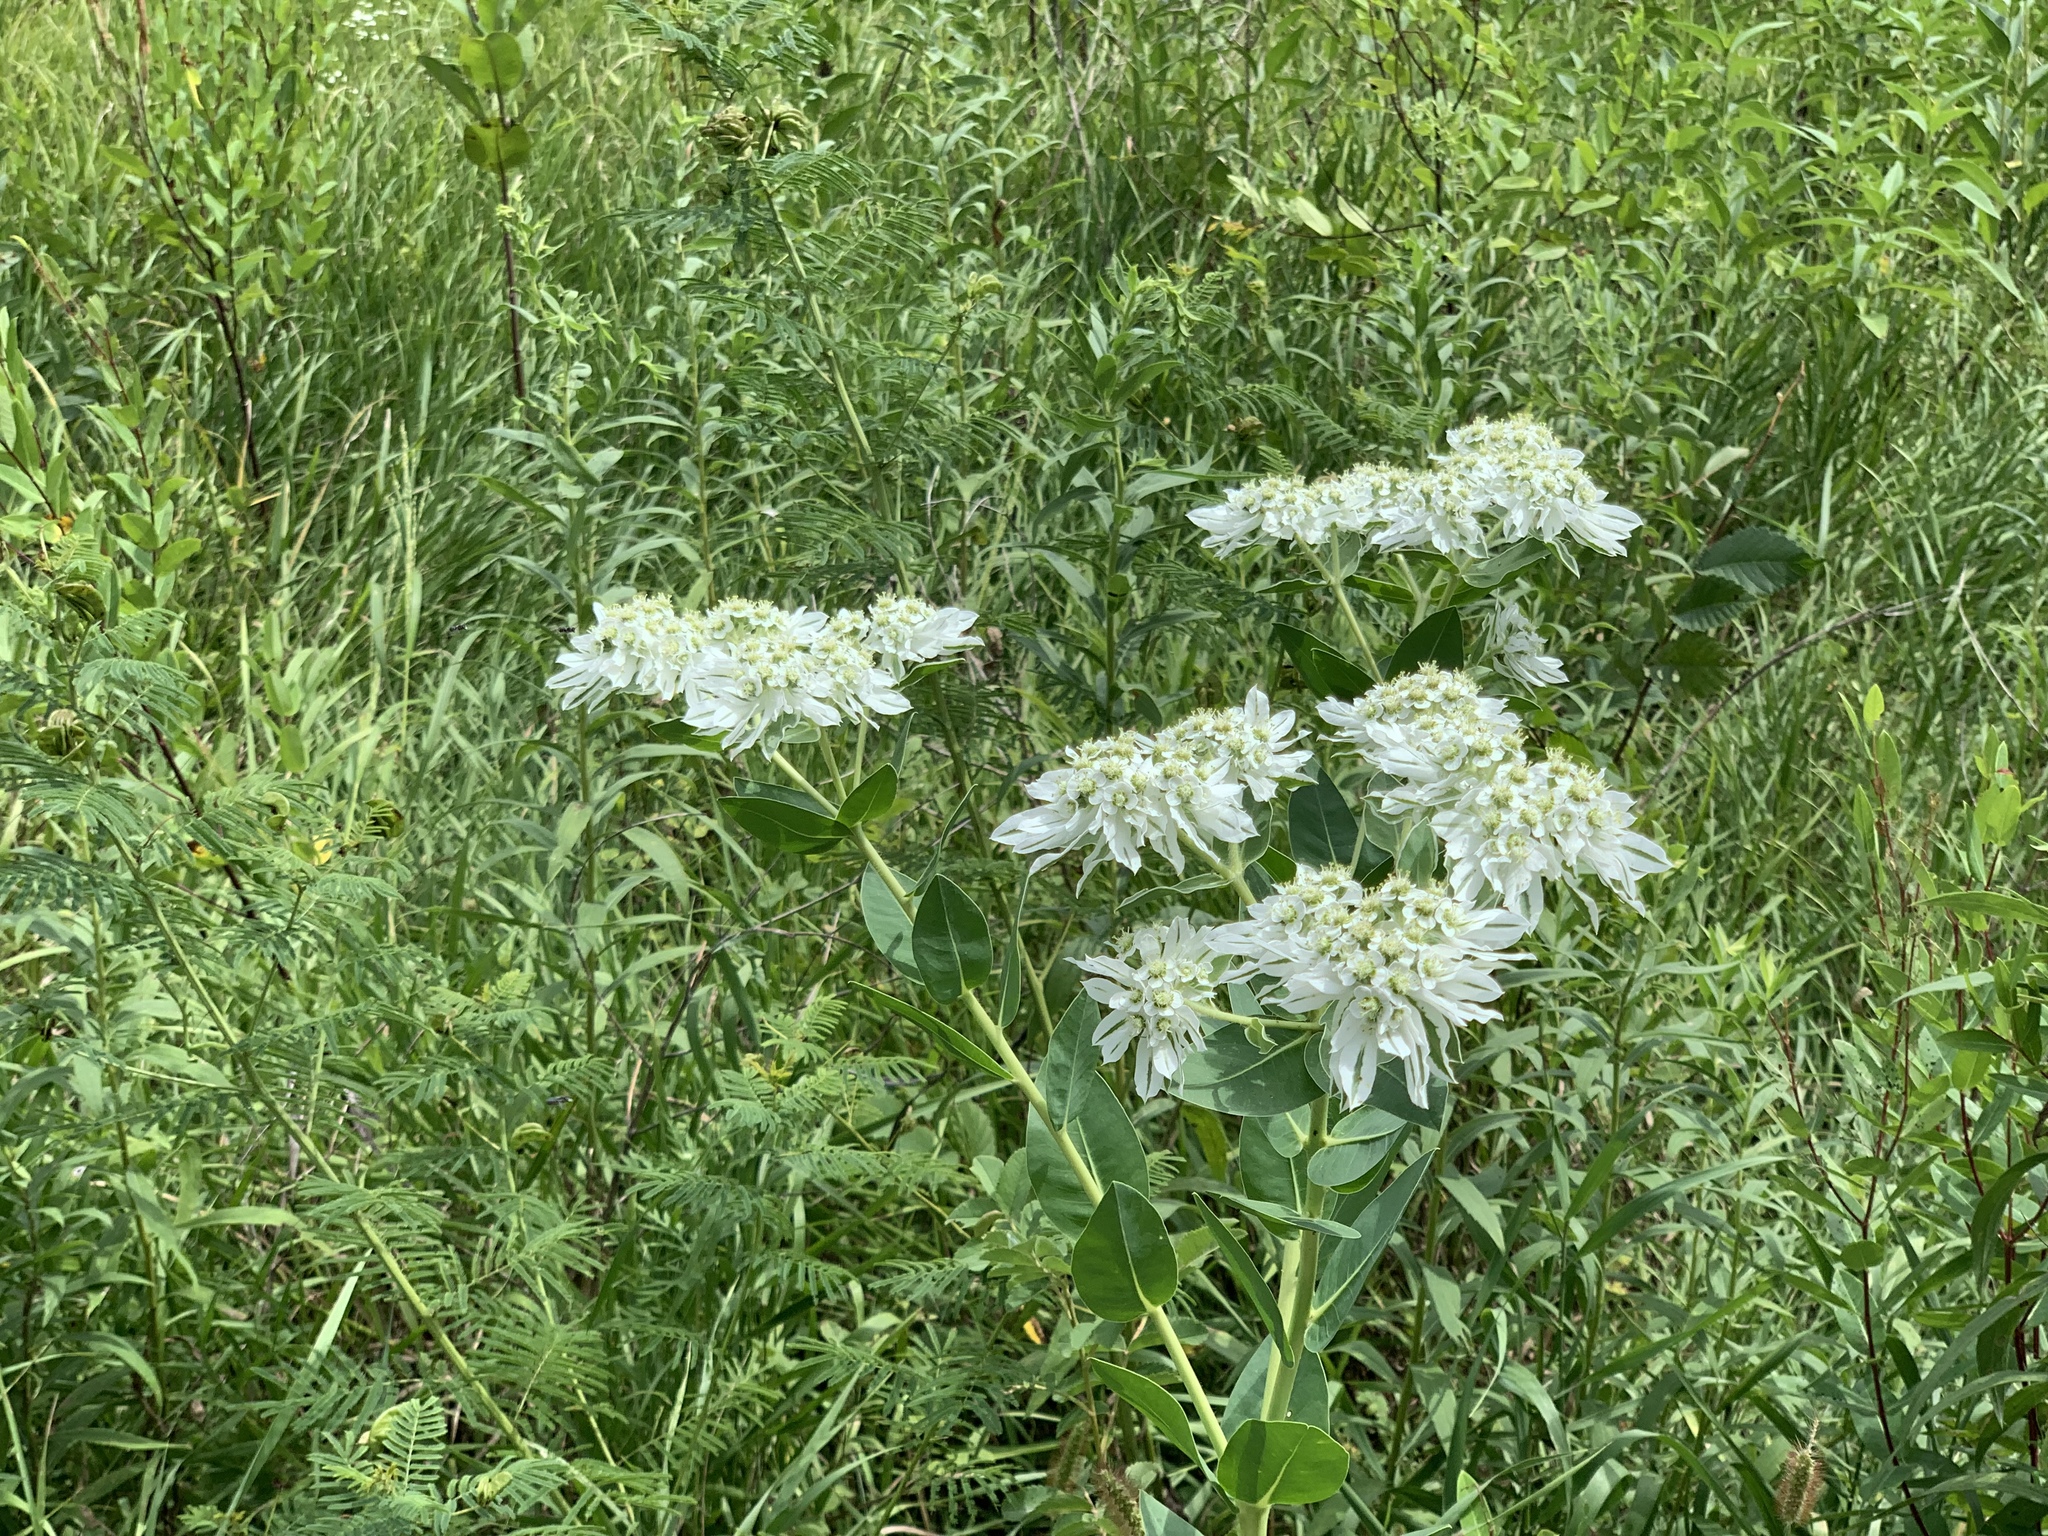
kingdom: Plantae
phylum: Tracheophyta
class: Magnoliopsida
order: Malpighiales
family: Euphorbiaceae
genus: Euphorbia
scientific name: Euphorbia marginata
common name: Ghostweed
